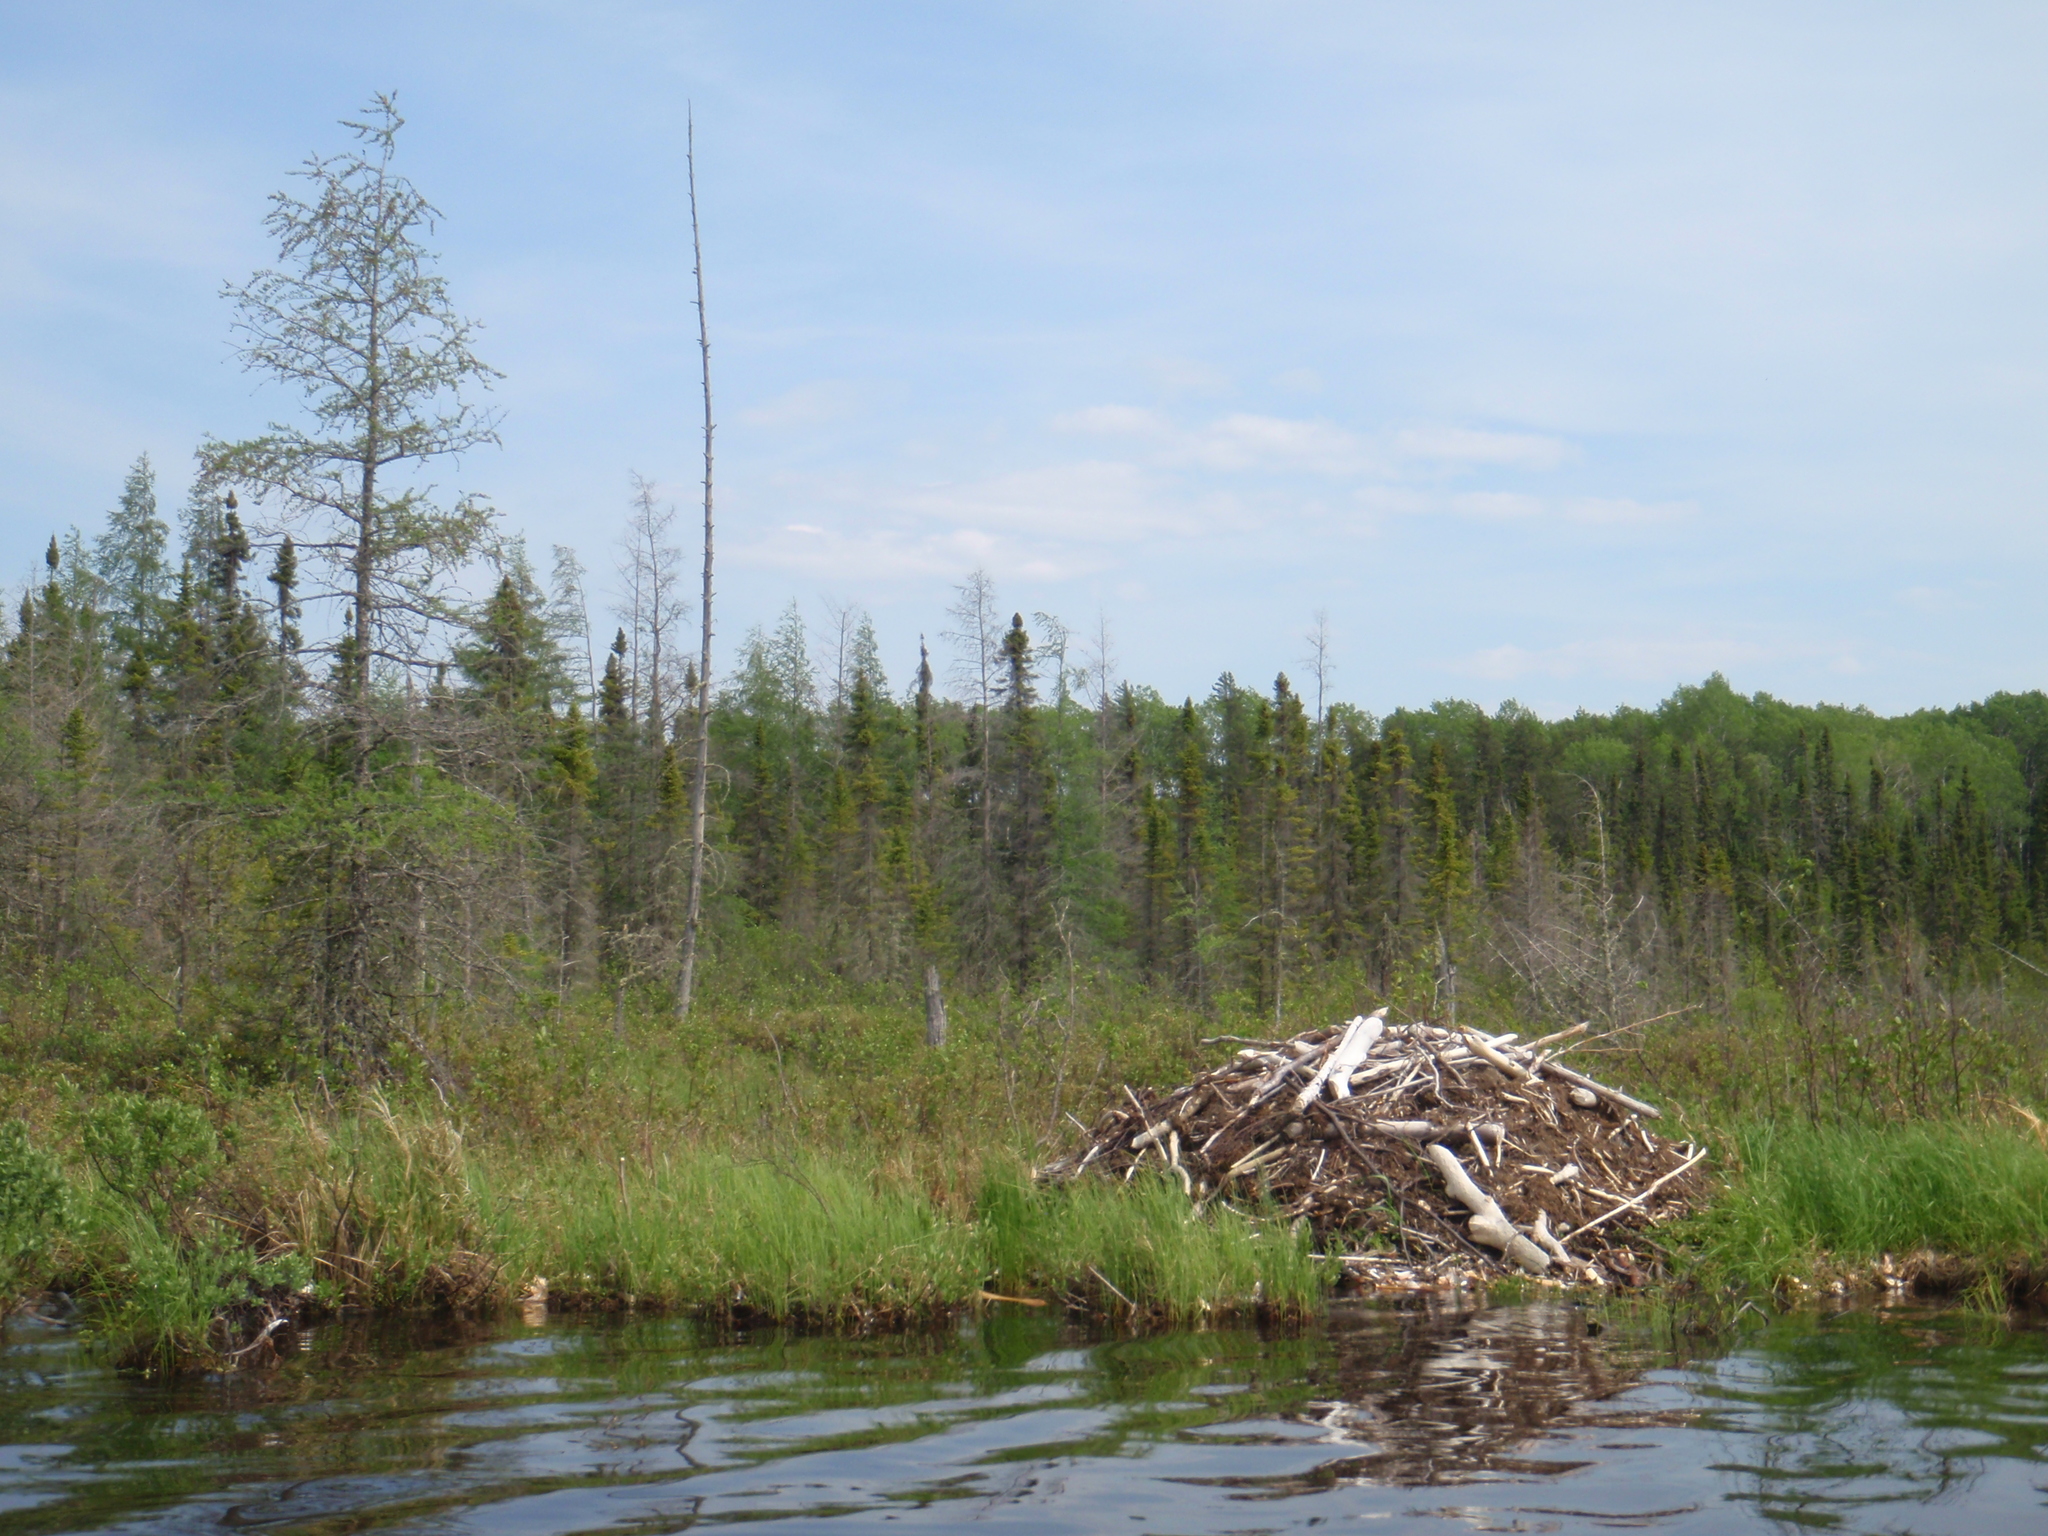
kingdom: Animalia
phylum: Chordata
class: Mammalia
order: Rodentia
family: Castoridae
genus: Castor
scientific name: Castor canadensis
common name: American beaver
